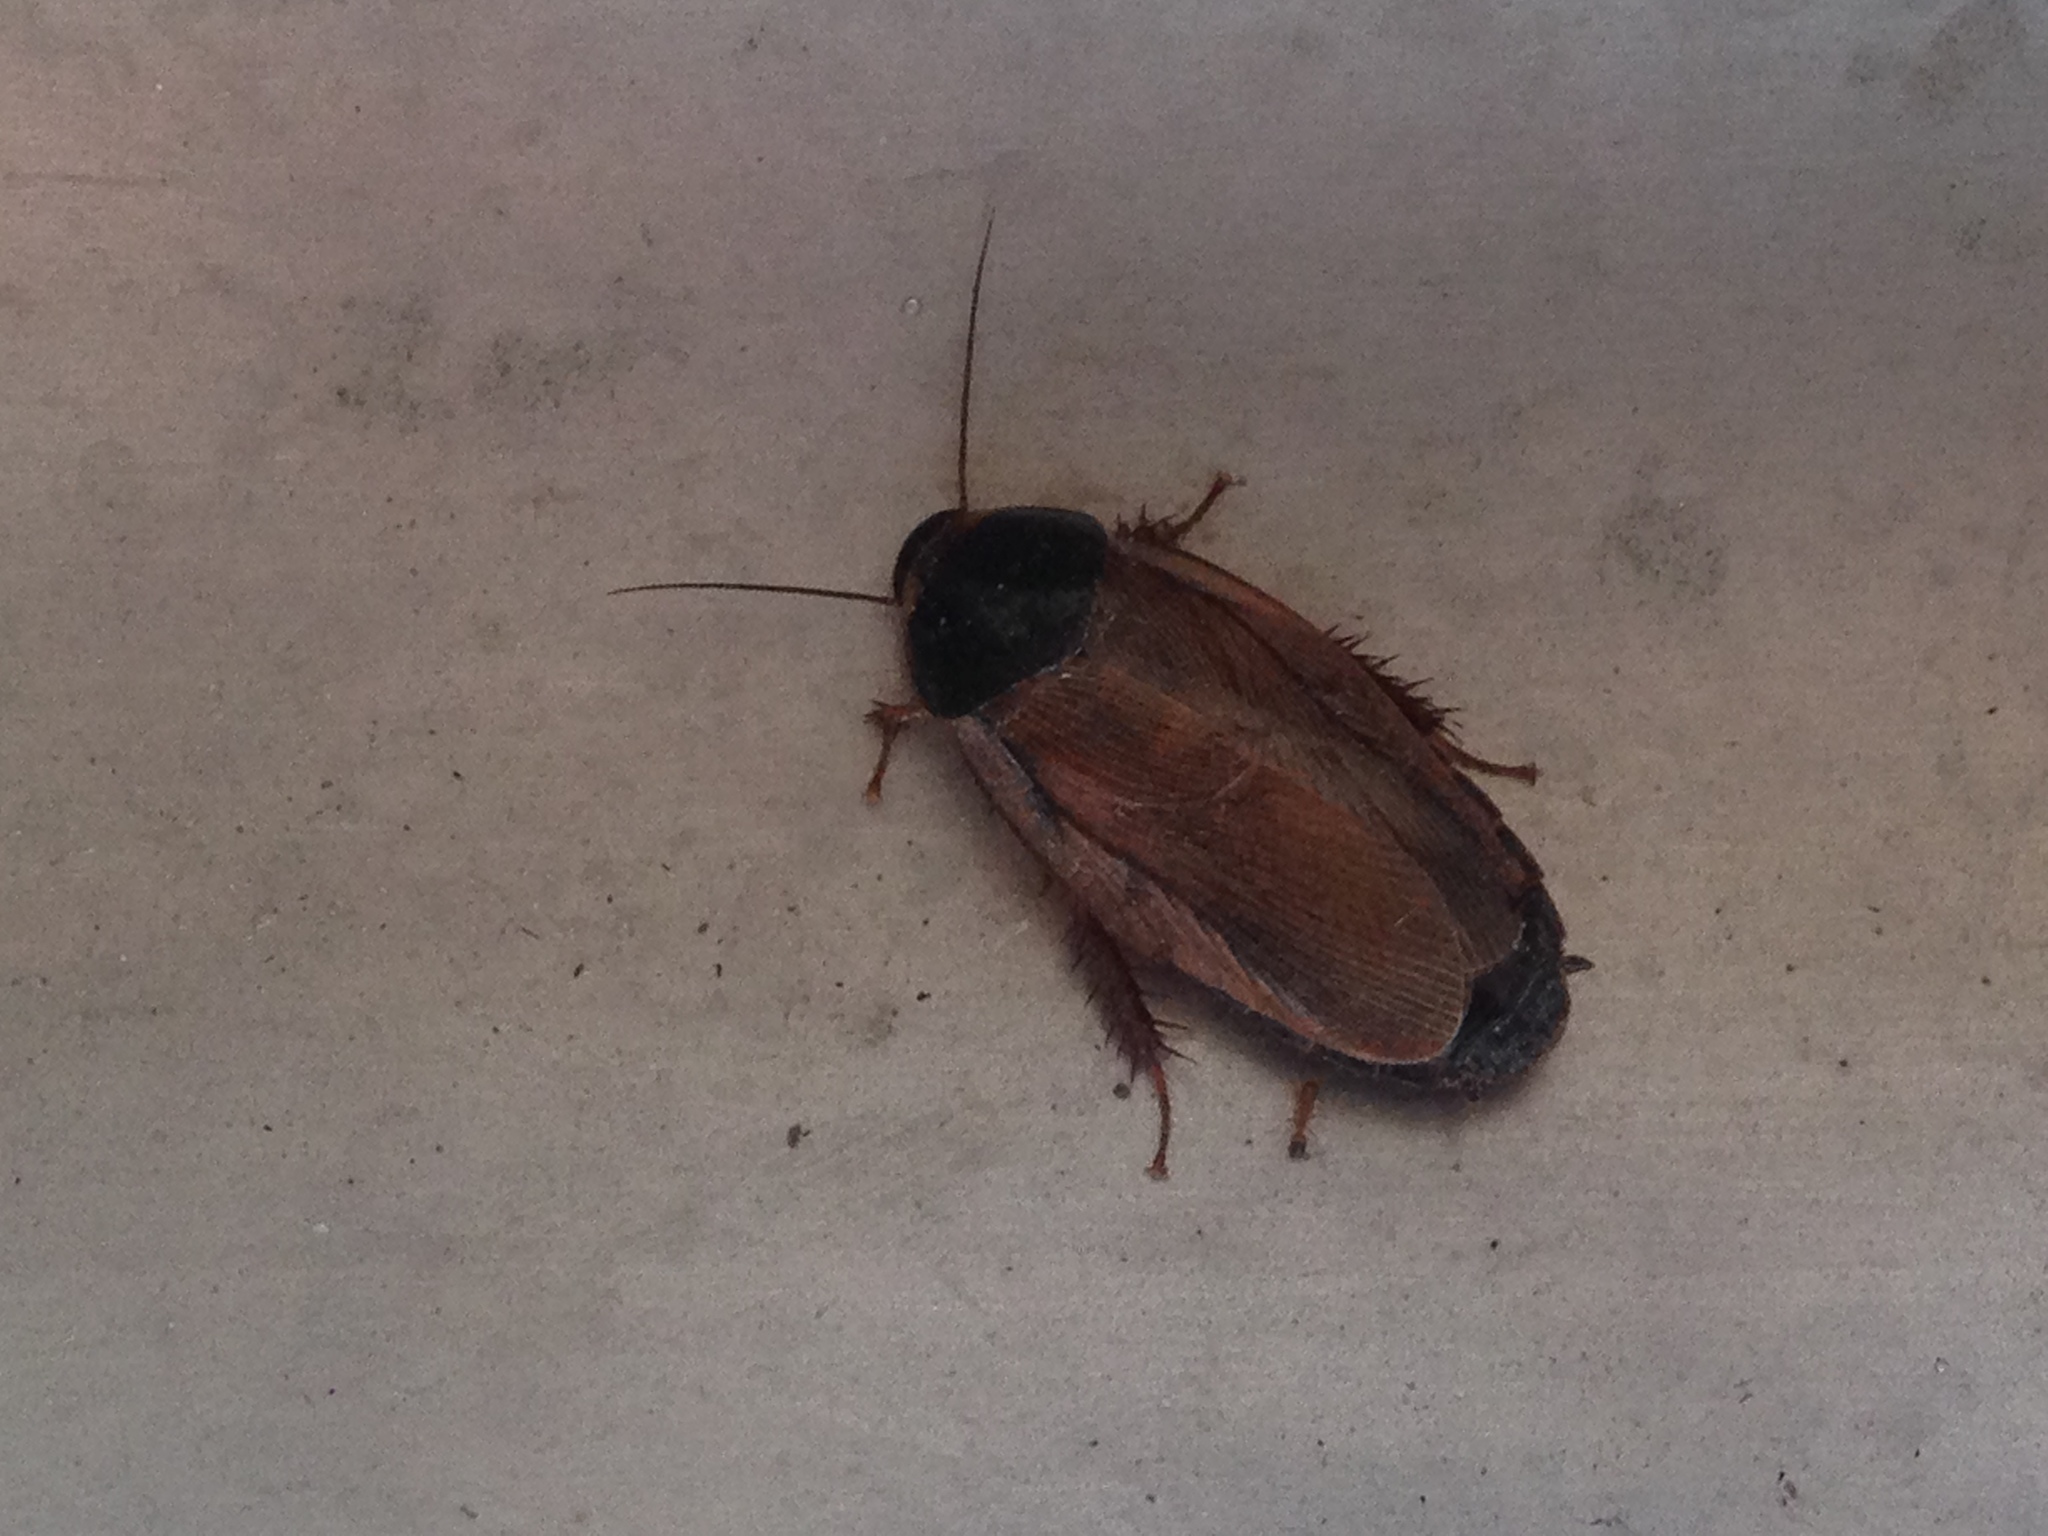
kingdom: Animalia
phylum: Arthropoda
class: Insecta
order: Blattodea
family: Blaberidae
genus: Pycnoscelus
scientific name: Pycnoscelus surinamensis
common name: Surinam cockroach
